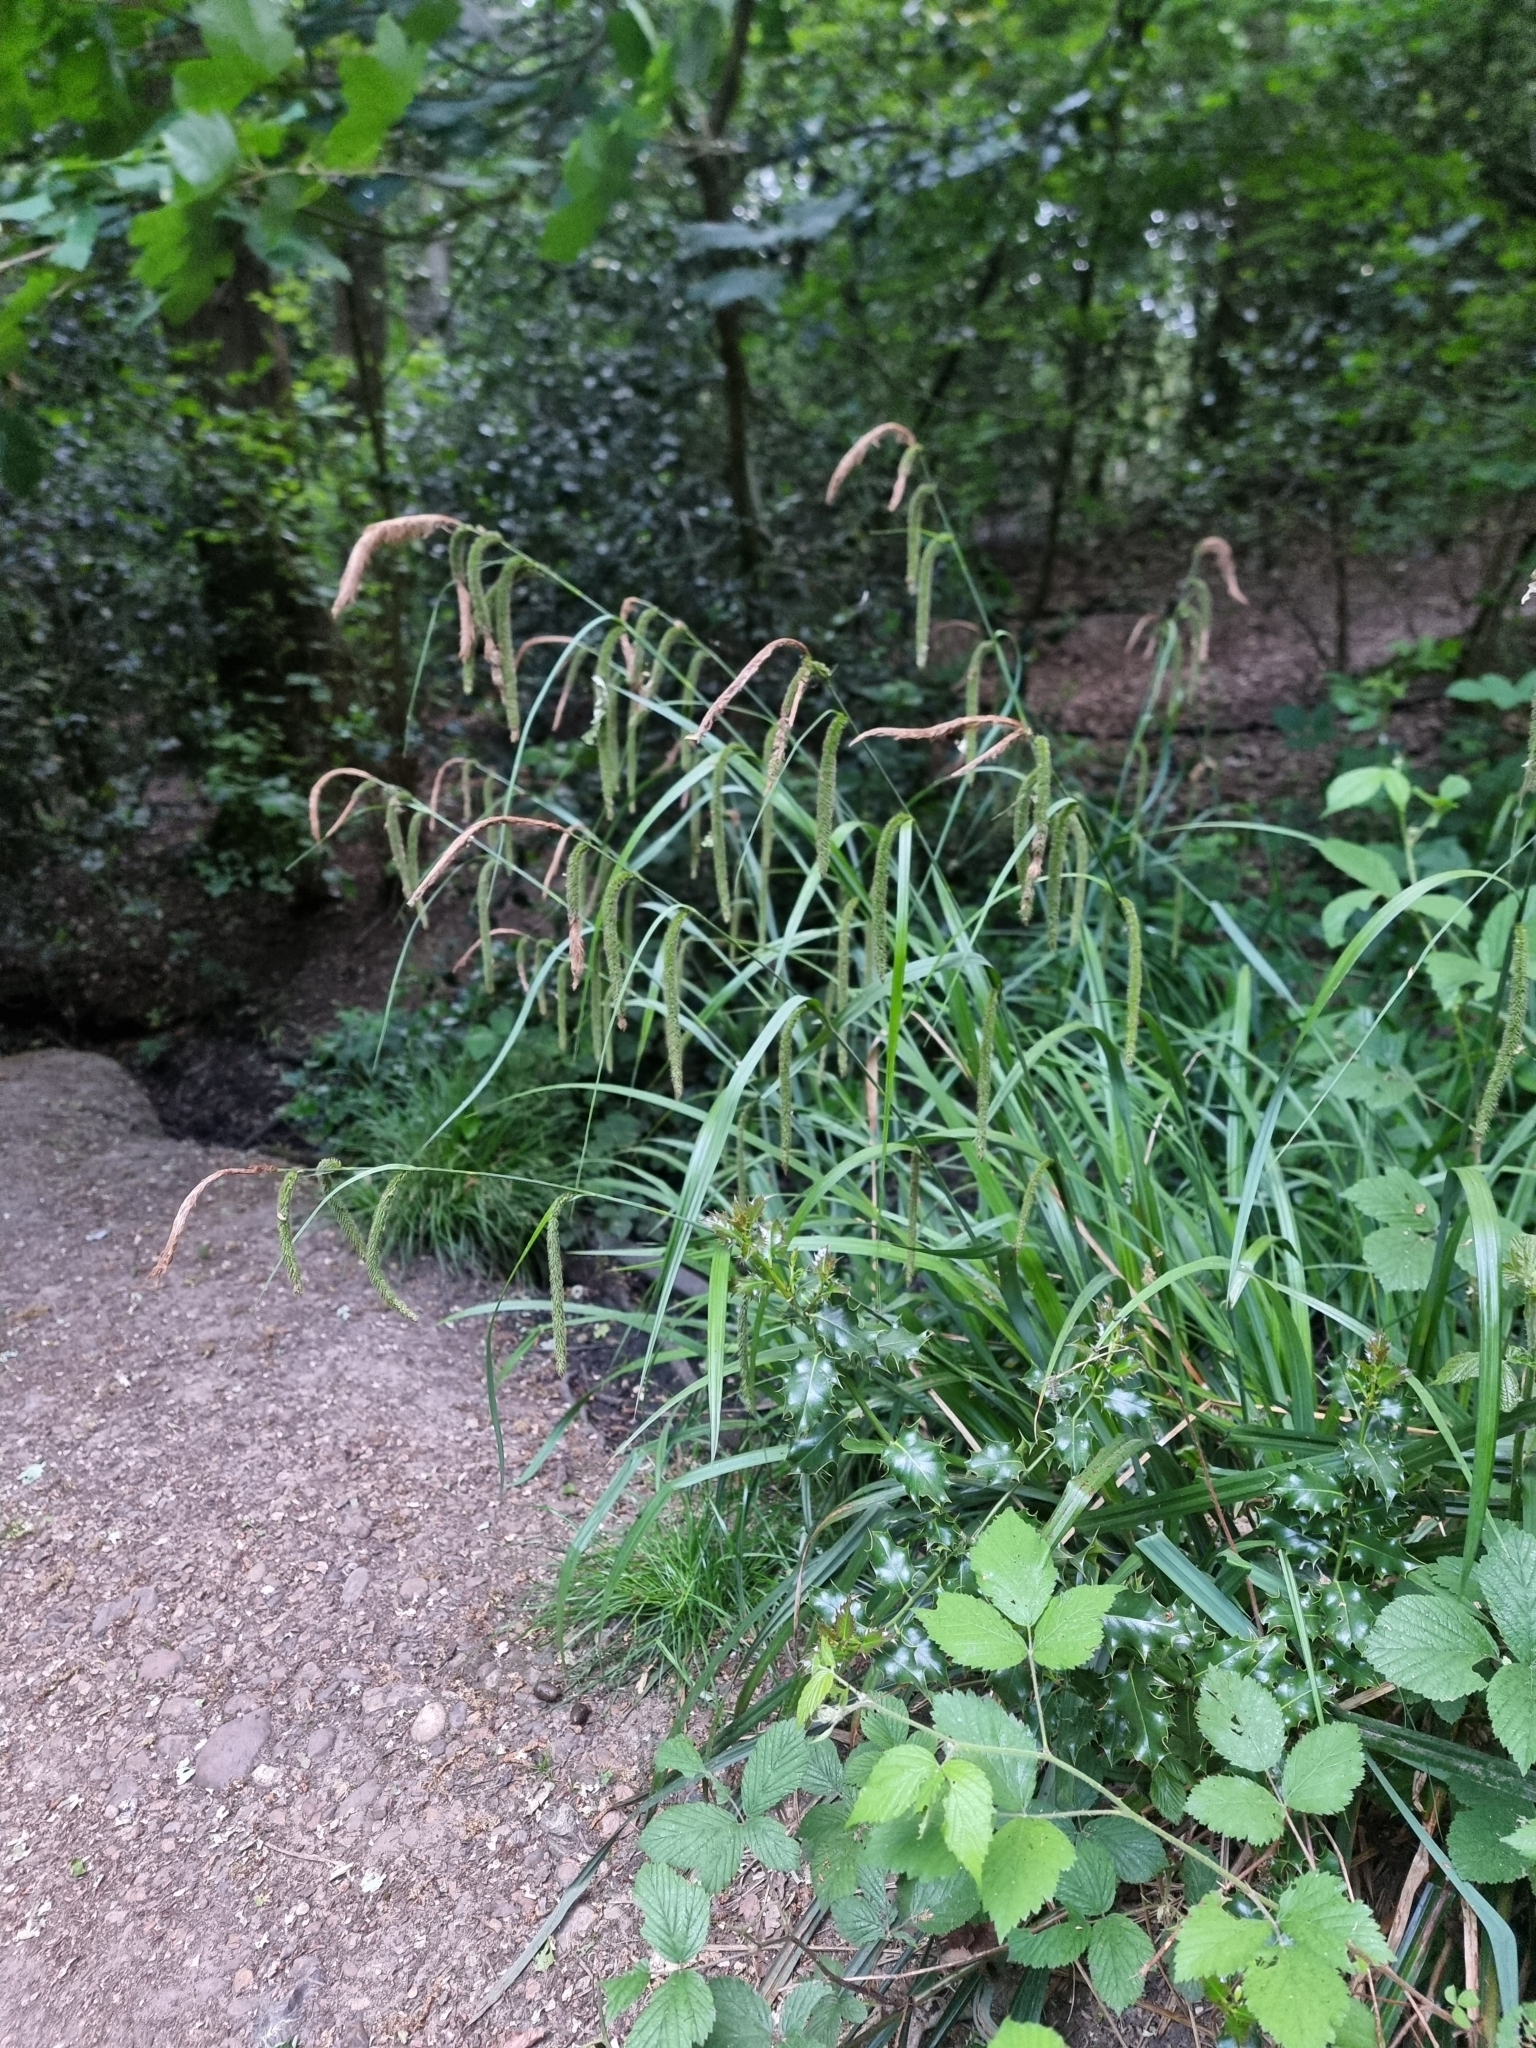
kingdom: Plantae
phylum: Tracheophyta
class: Liliopsida
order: Poales
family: Cyperaceae
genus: Carex
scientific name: Carex pendula
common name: Pendulous sedge
